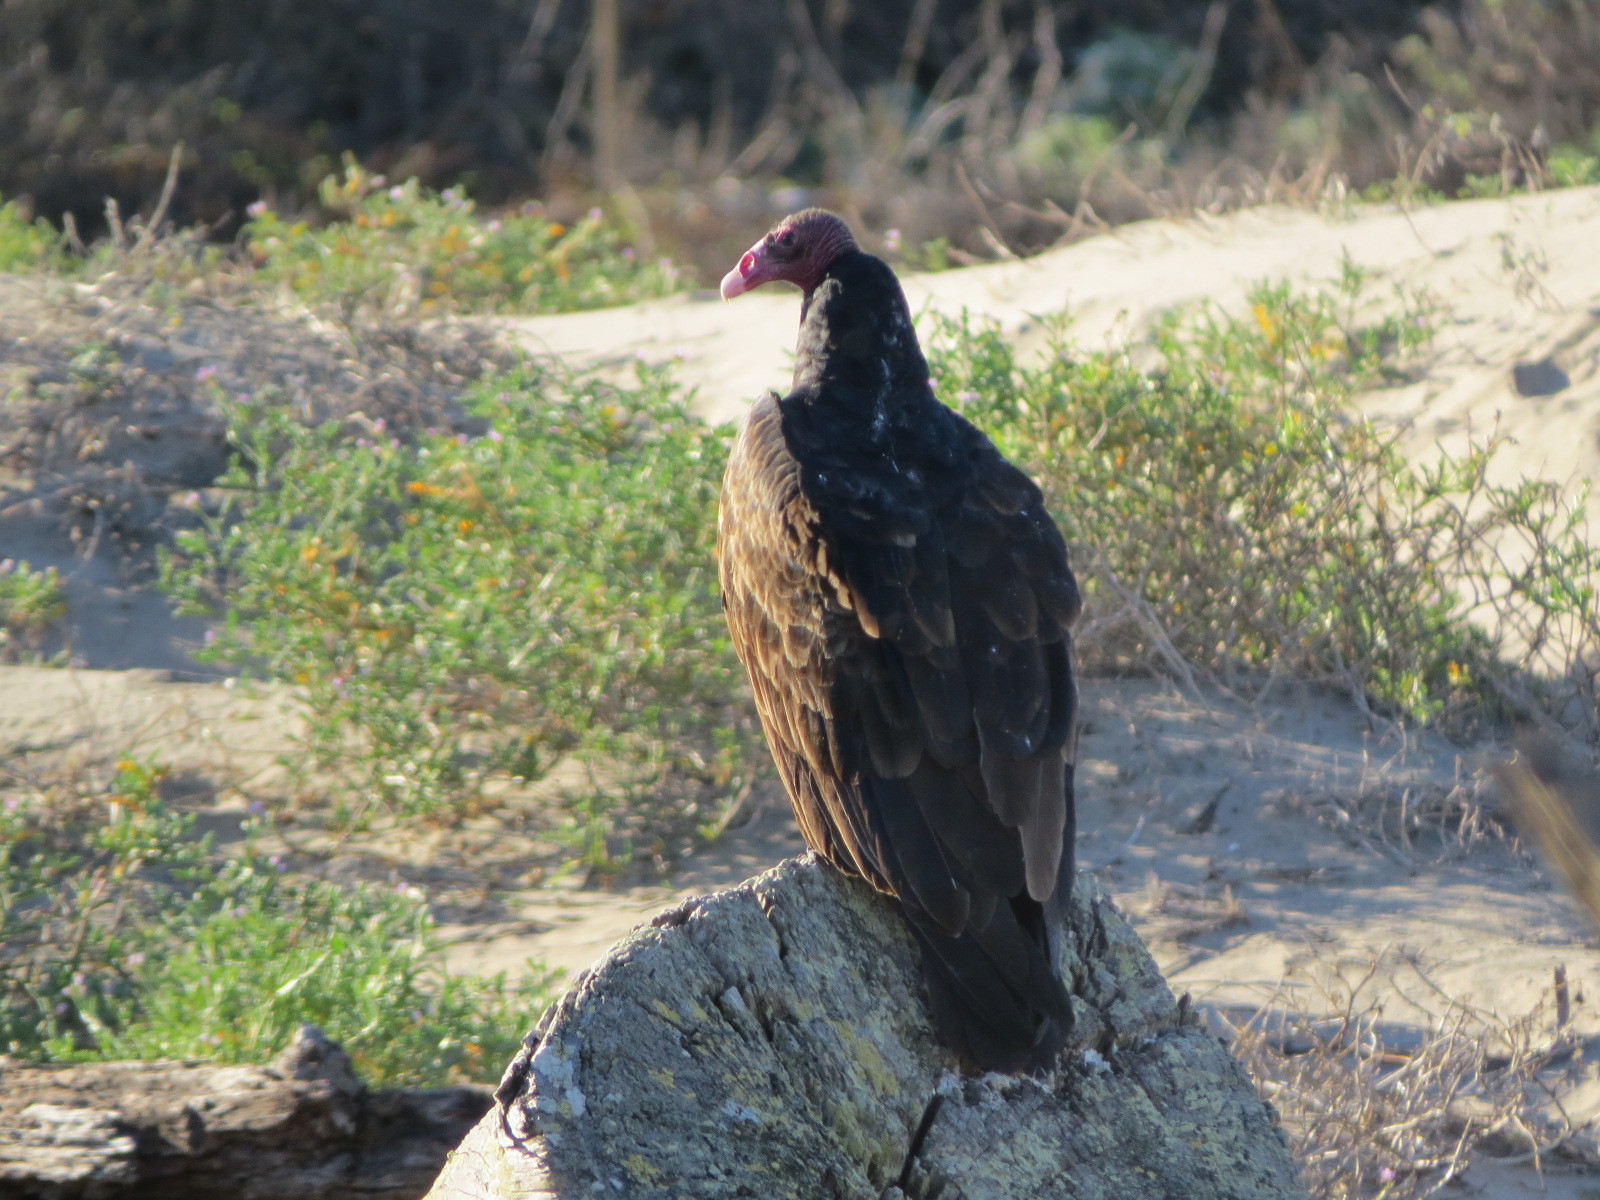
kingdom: Animalia
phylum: Chordata
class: Aves
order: Accipitriformes
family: Cathartidae
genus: Cathartes
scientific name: Cathartes aura
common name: Turkey vulture
